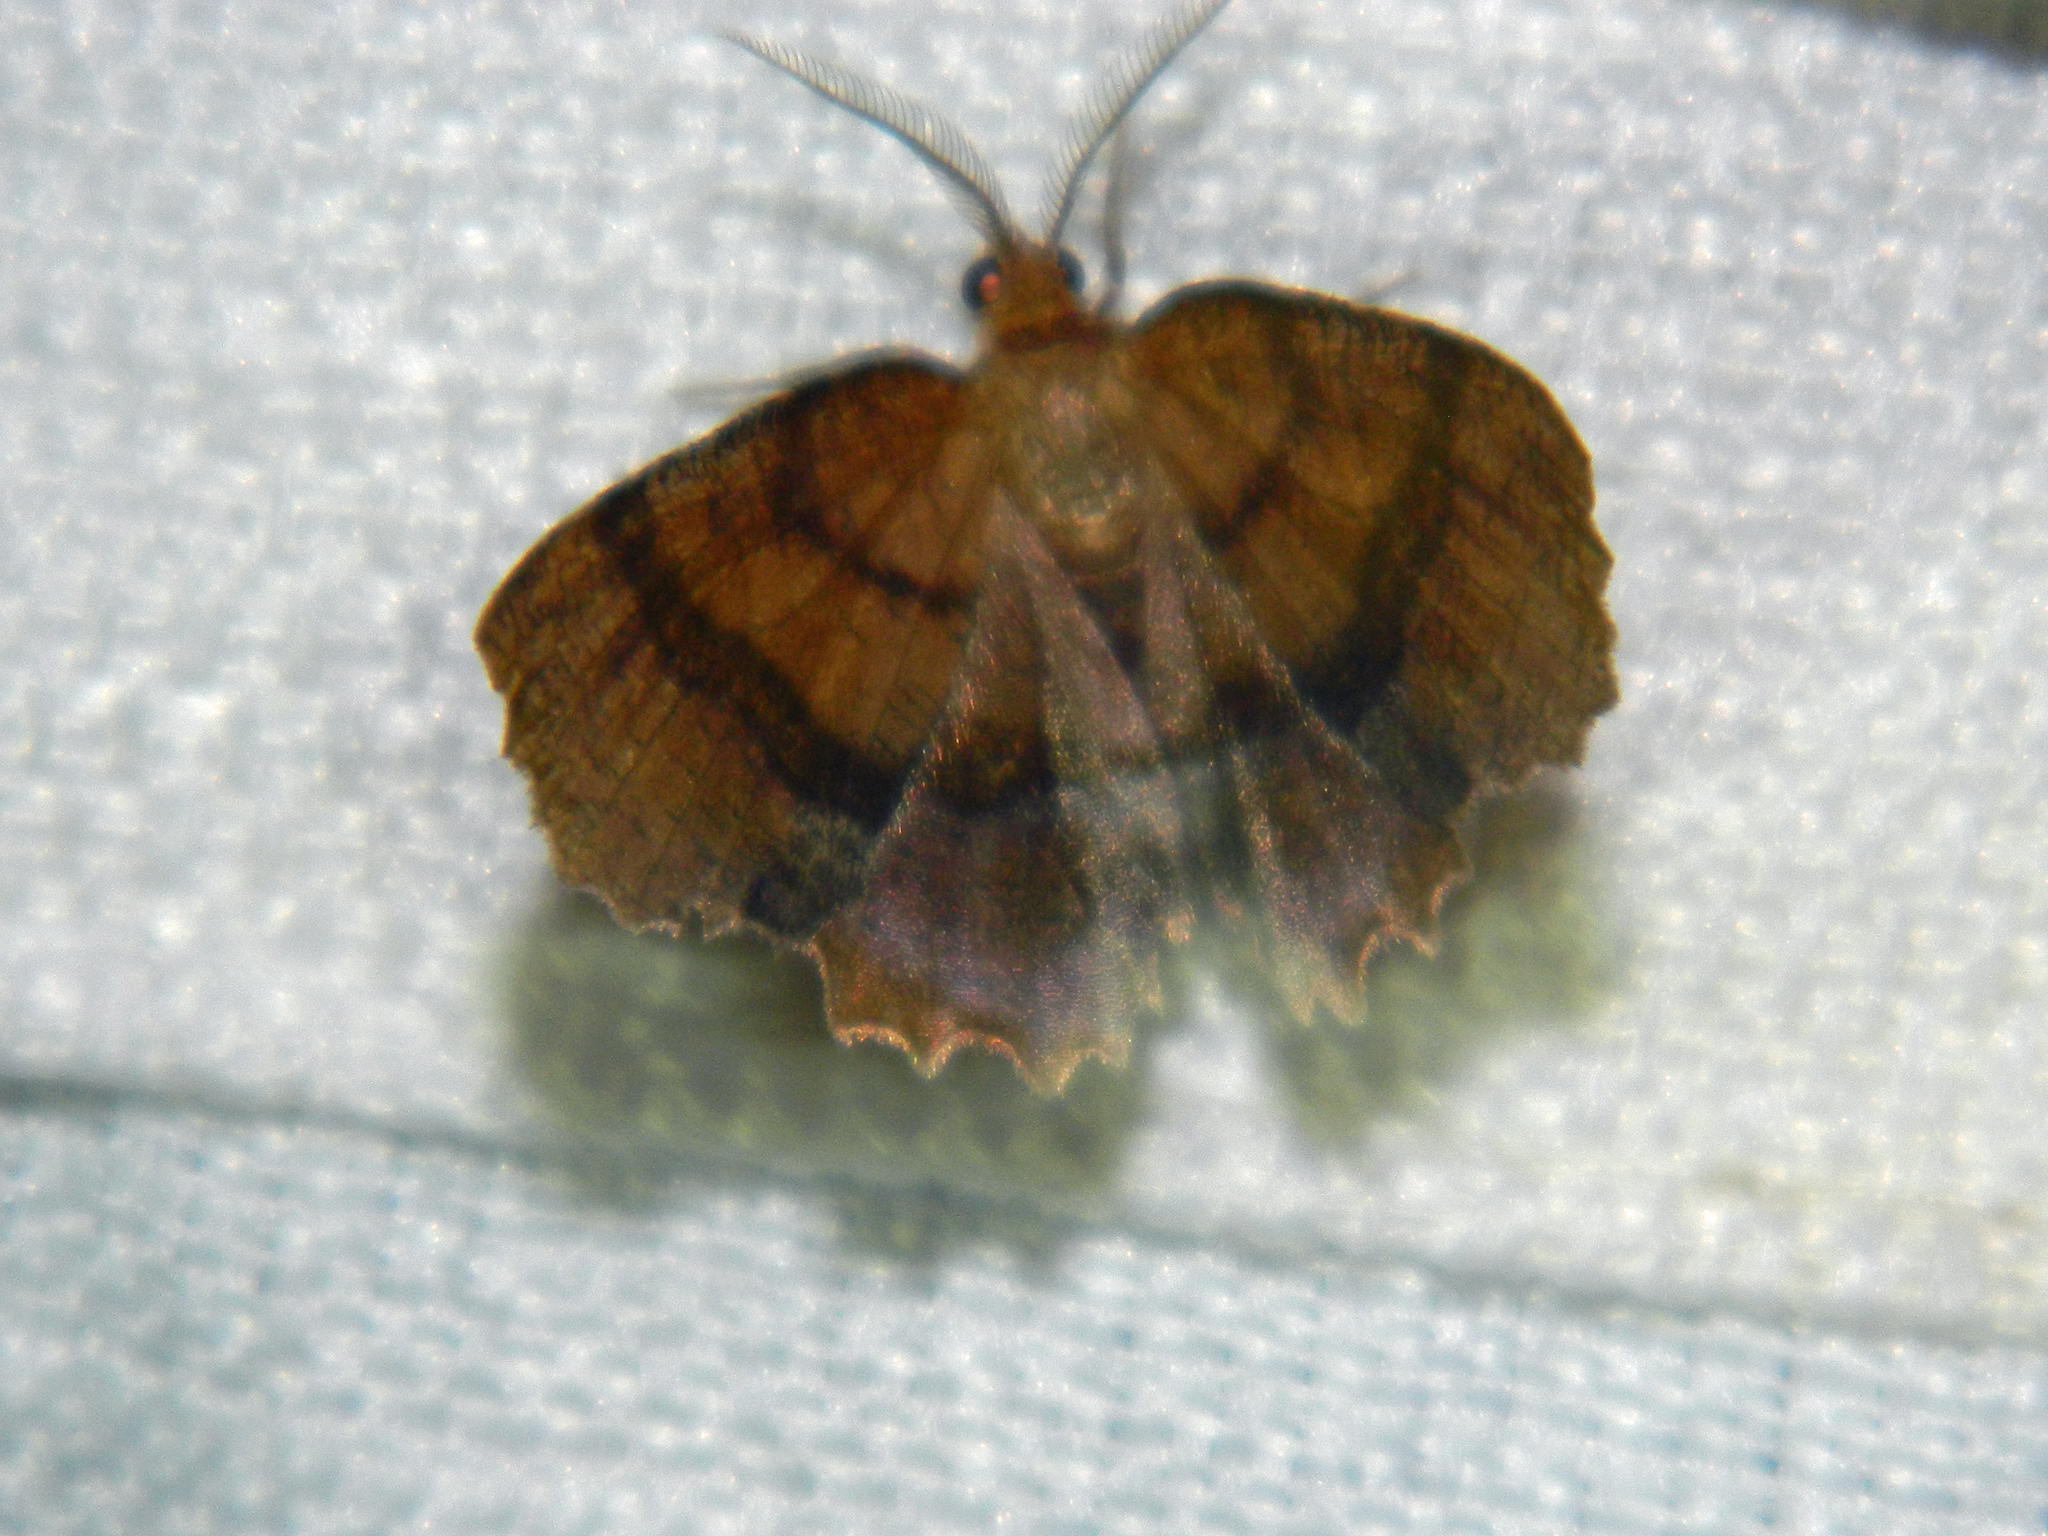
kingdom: Animalia
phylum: Arthropoda
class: Insecta
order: Lepidoptera
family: Geometridae
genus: Cepphis
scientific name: Cepphis armataria
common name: Scallop moth
